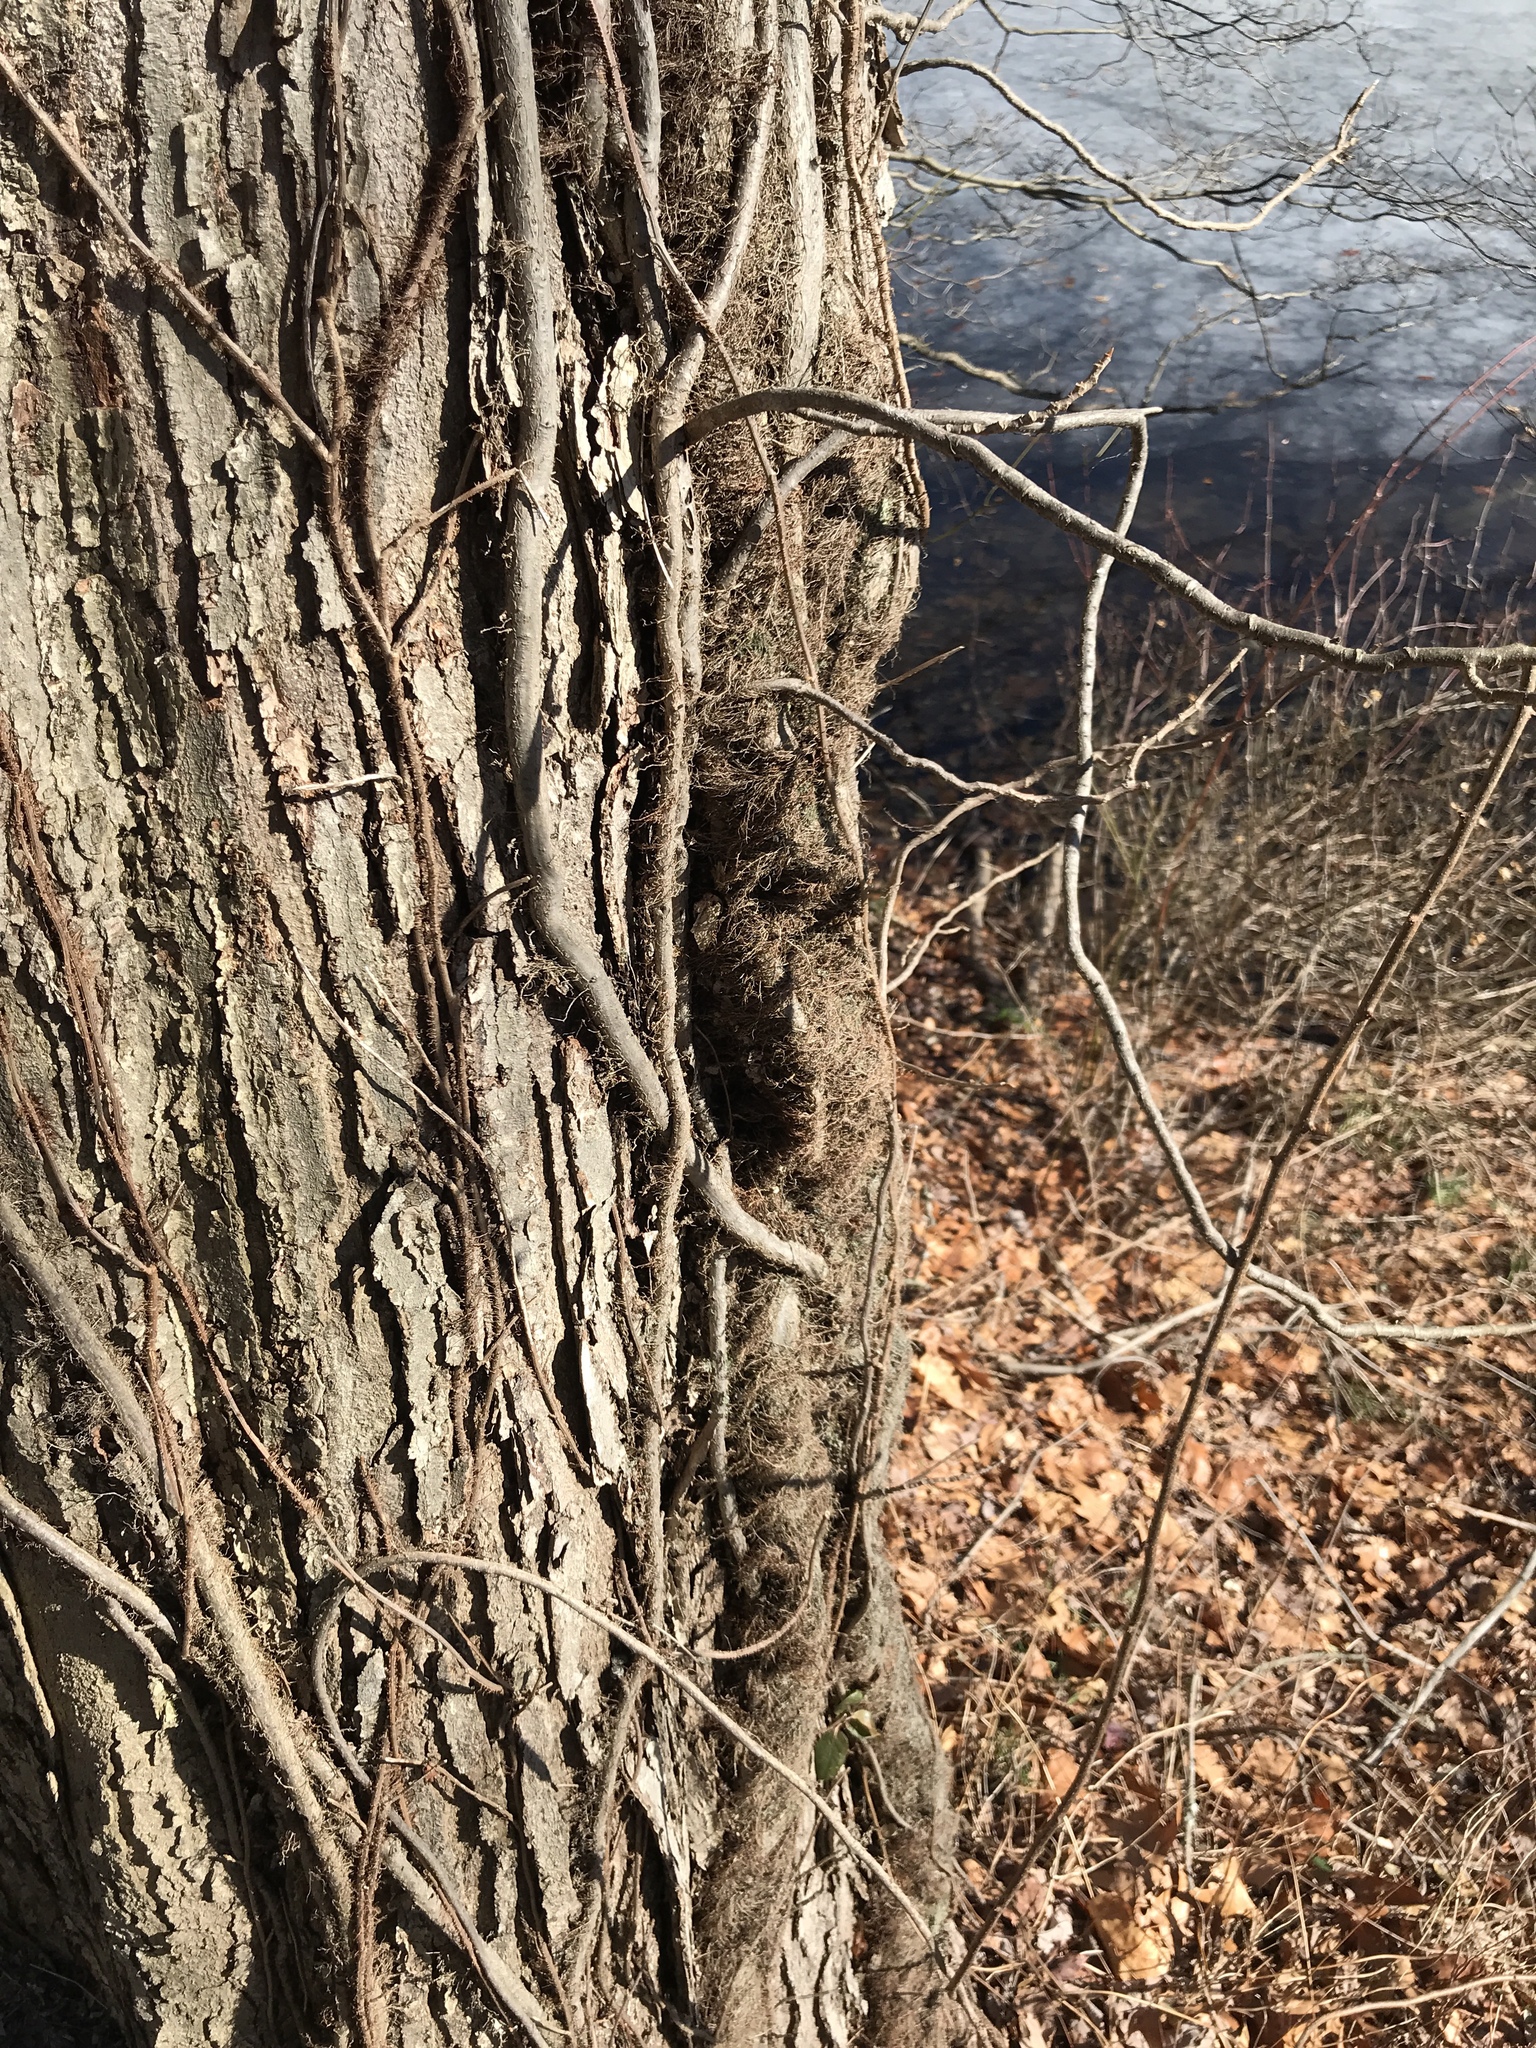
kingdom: Plantae
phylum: Tracheophyta
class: Magnoliopsida
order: Sapindales
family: Anacardiaceae
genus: Toxicodendron
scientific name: Toxicodendron radicans
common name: Poison ivy
